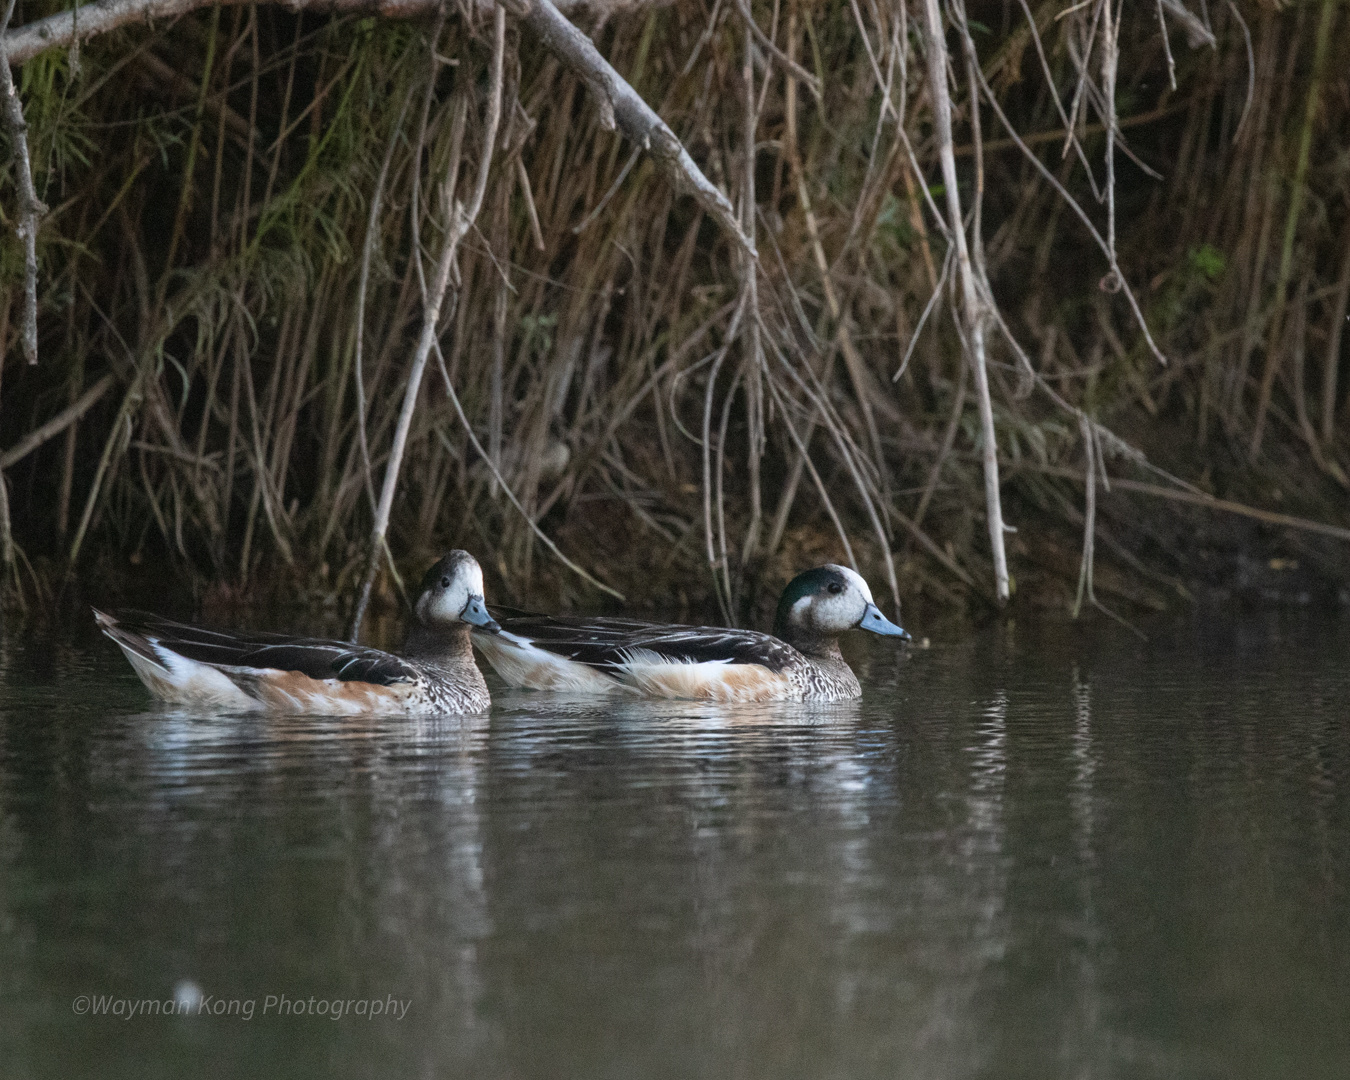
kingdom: Animalia
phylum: Chordata
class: Aves
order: Anseriformes
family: Anatidae
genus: Mareca
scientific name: Mareca sibilatrix
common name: Chiloe wigeon
